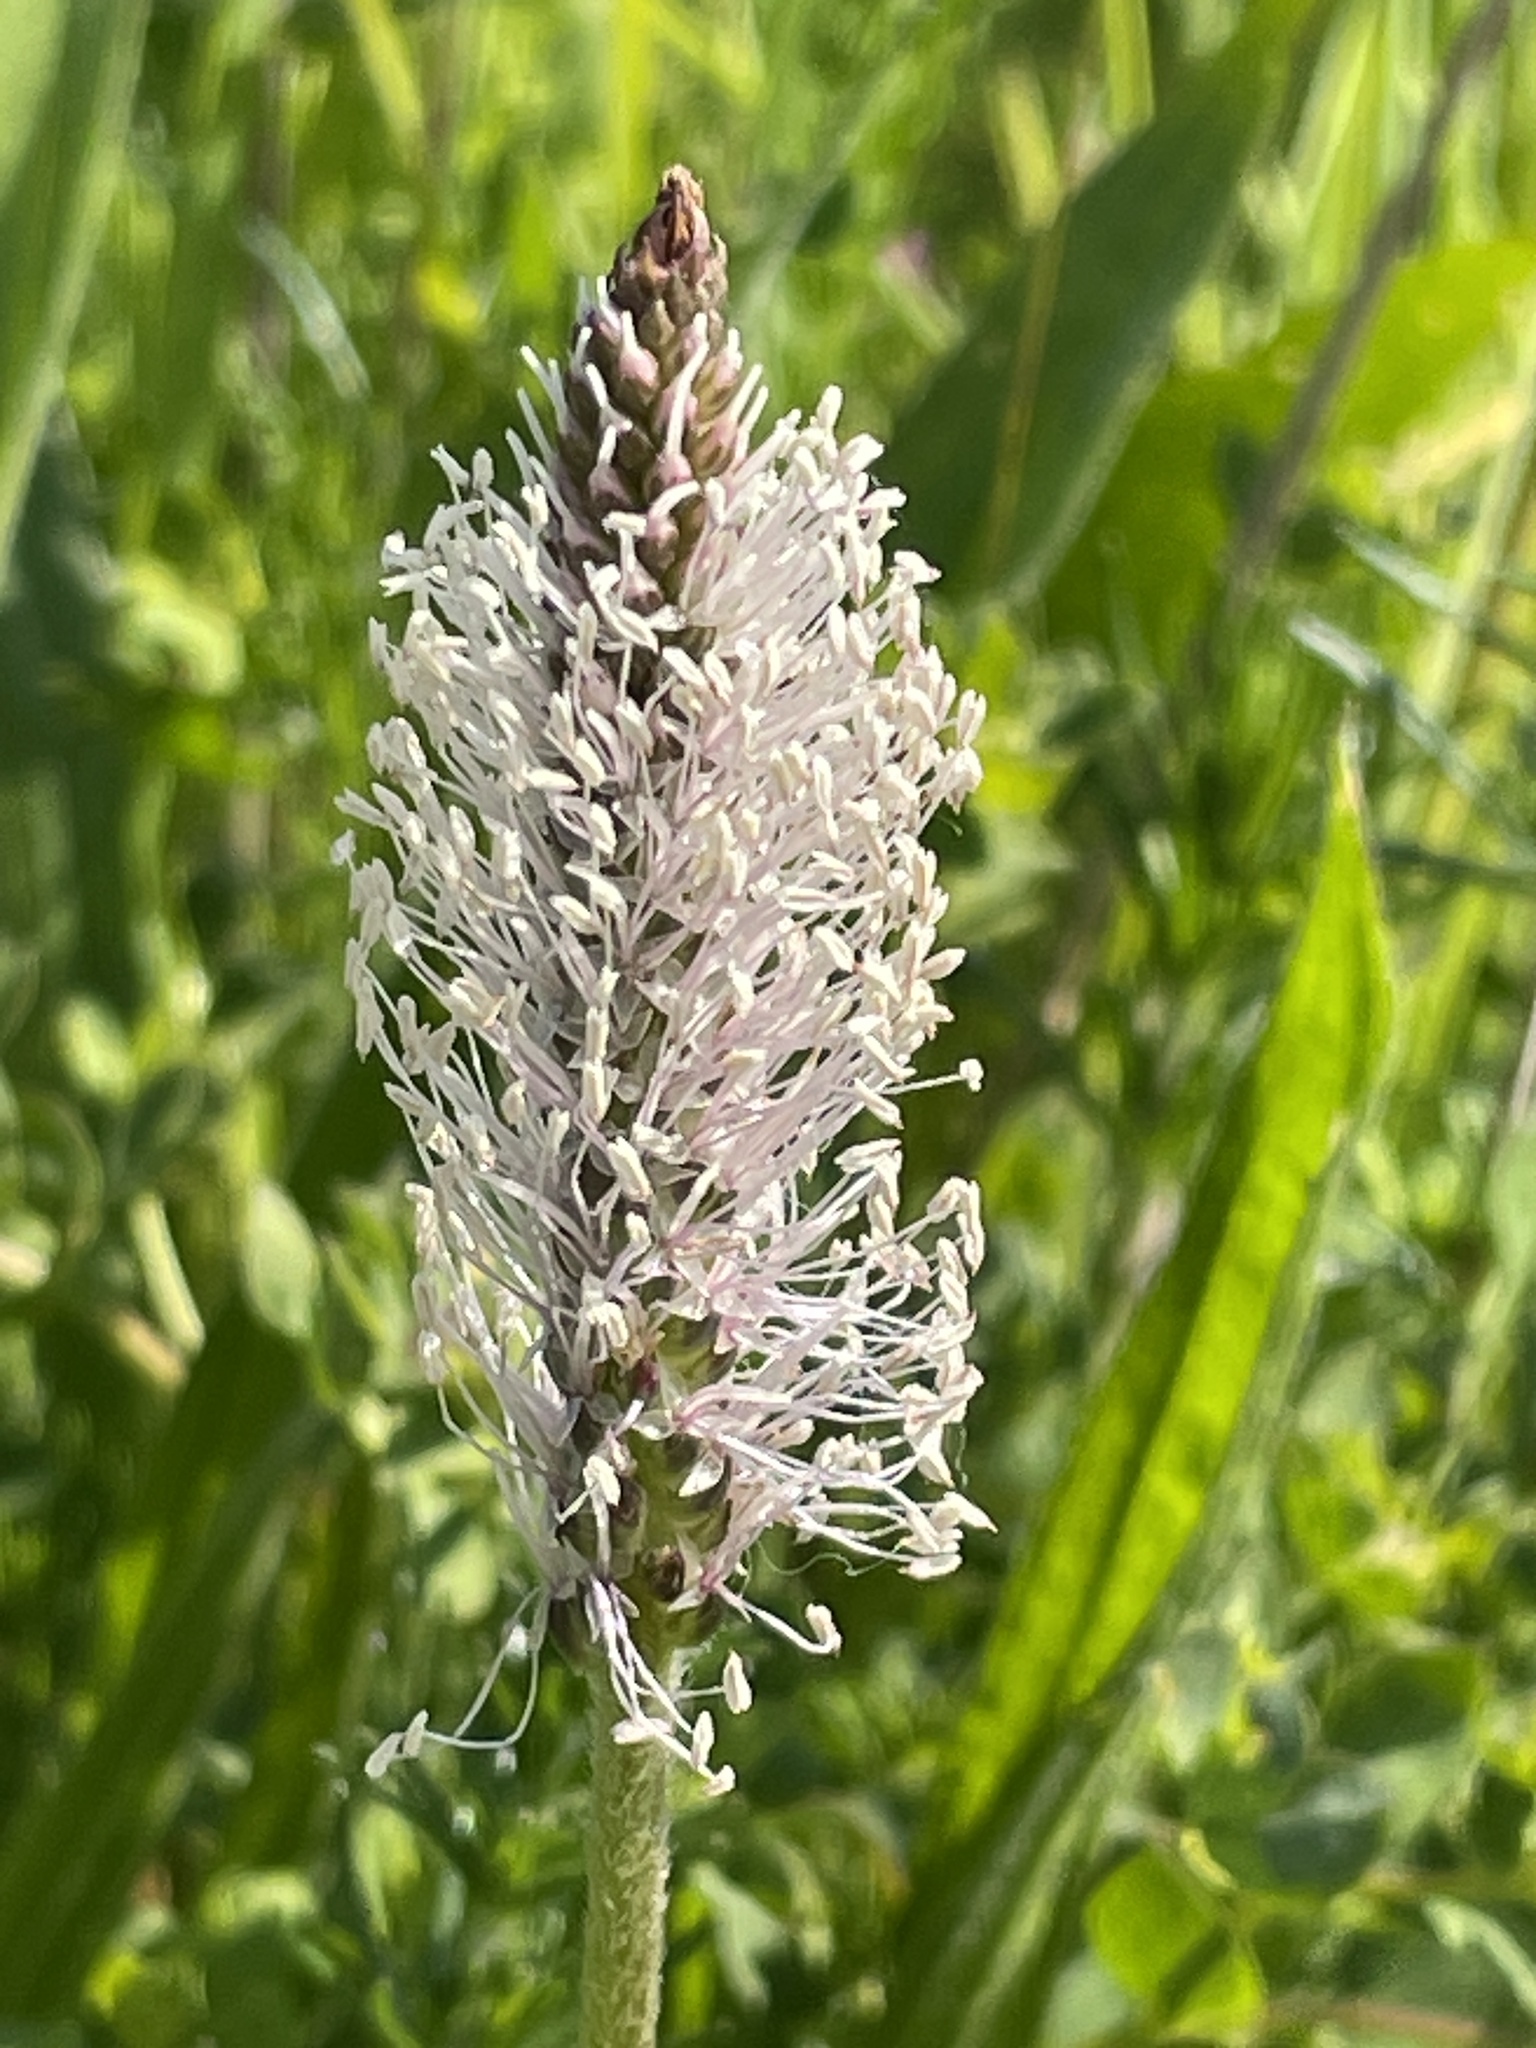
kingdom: Plantae
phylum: Tracheophyta
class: Magnoliopsida
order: Lamiales
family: Plantaginaceae
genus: Plantago
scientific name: Plantago media
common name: Hoary plantain
